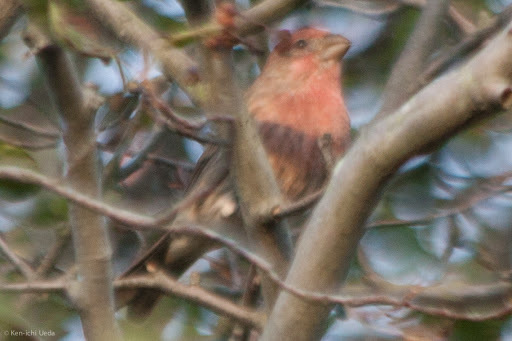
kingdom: Animalia
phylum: Chordata
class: Aves
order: Passeriformes
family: Fringillidae
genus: Haemorhous
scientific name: Haemorhous mexicanus
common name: House finch
